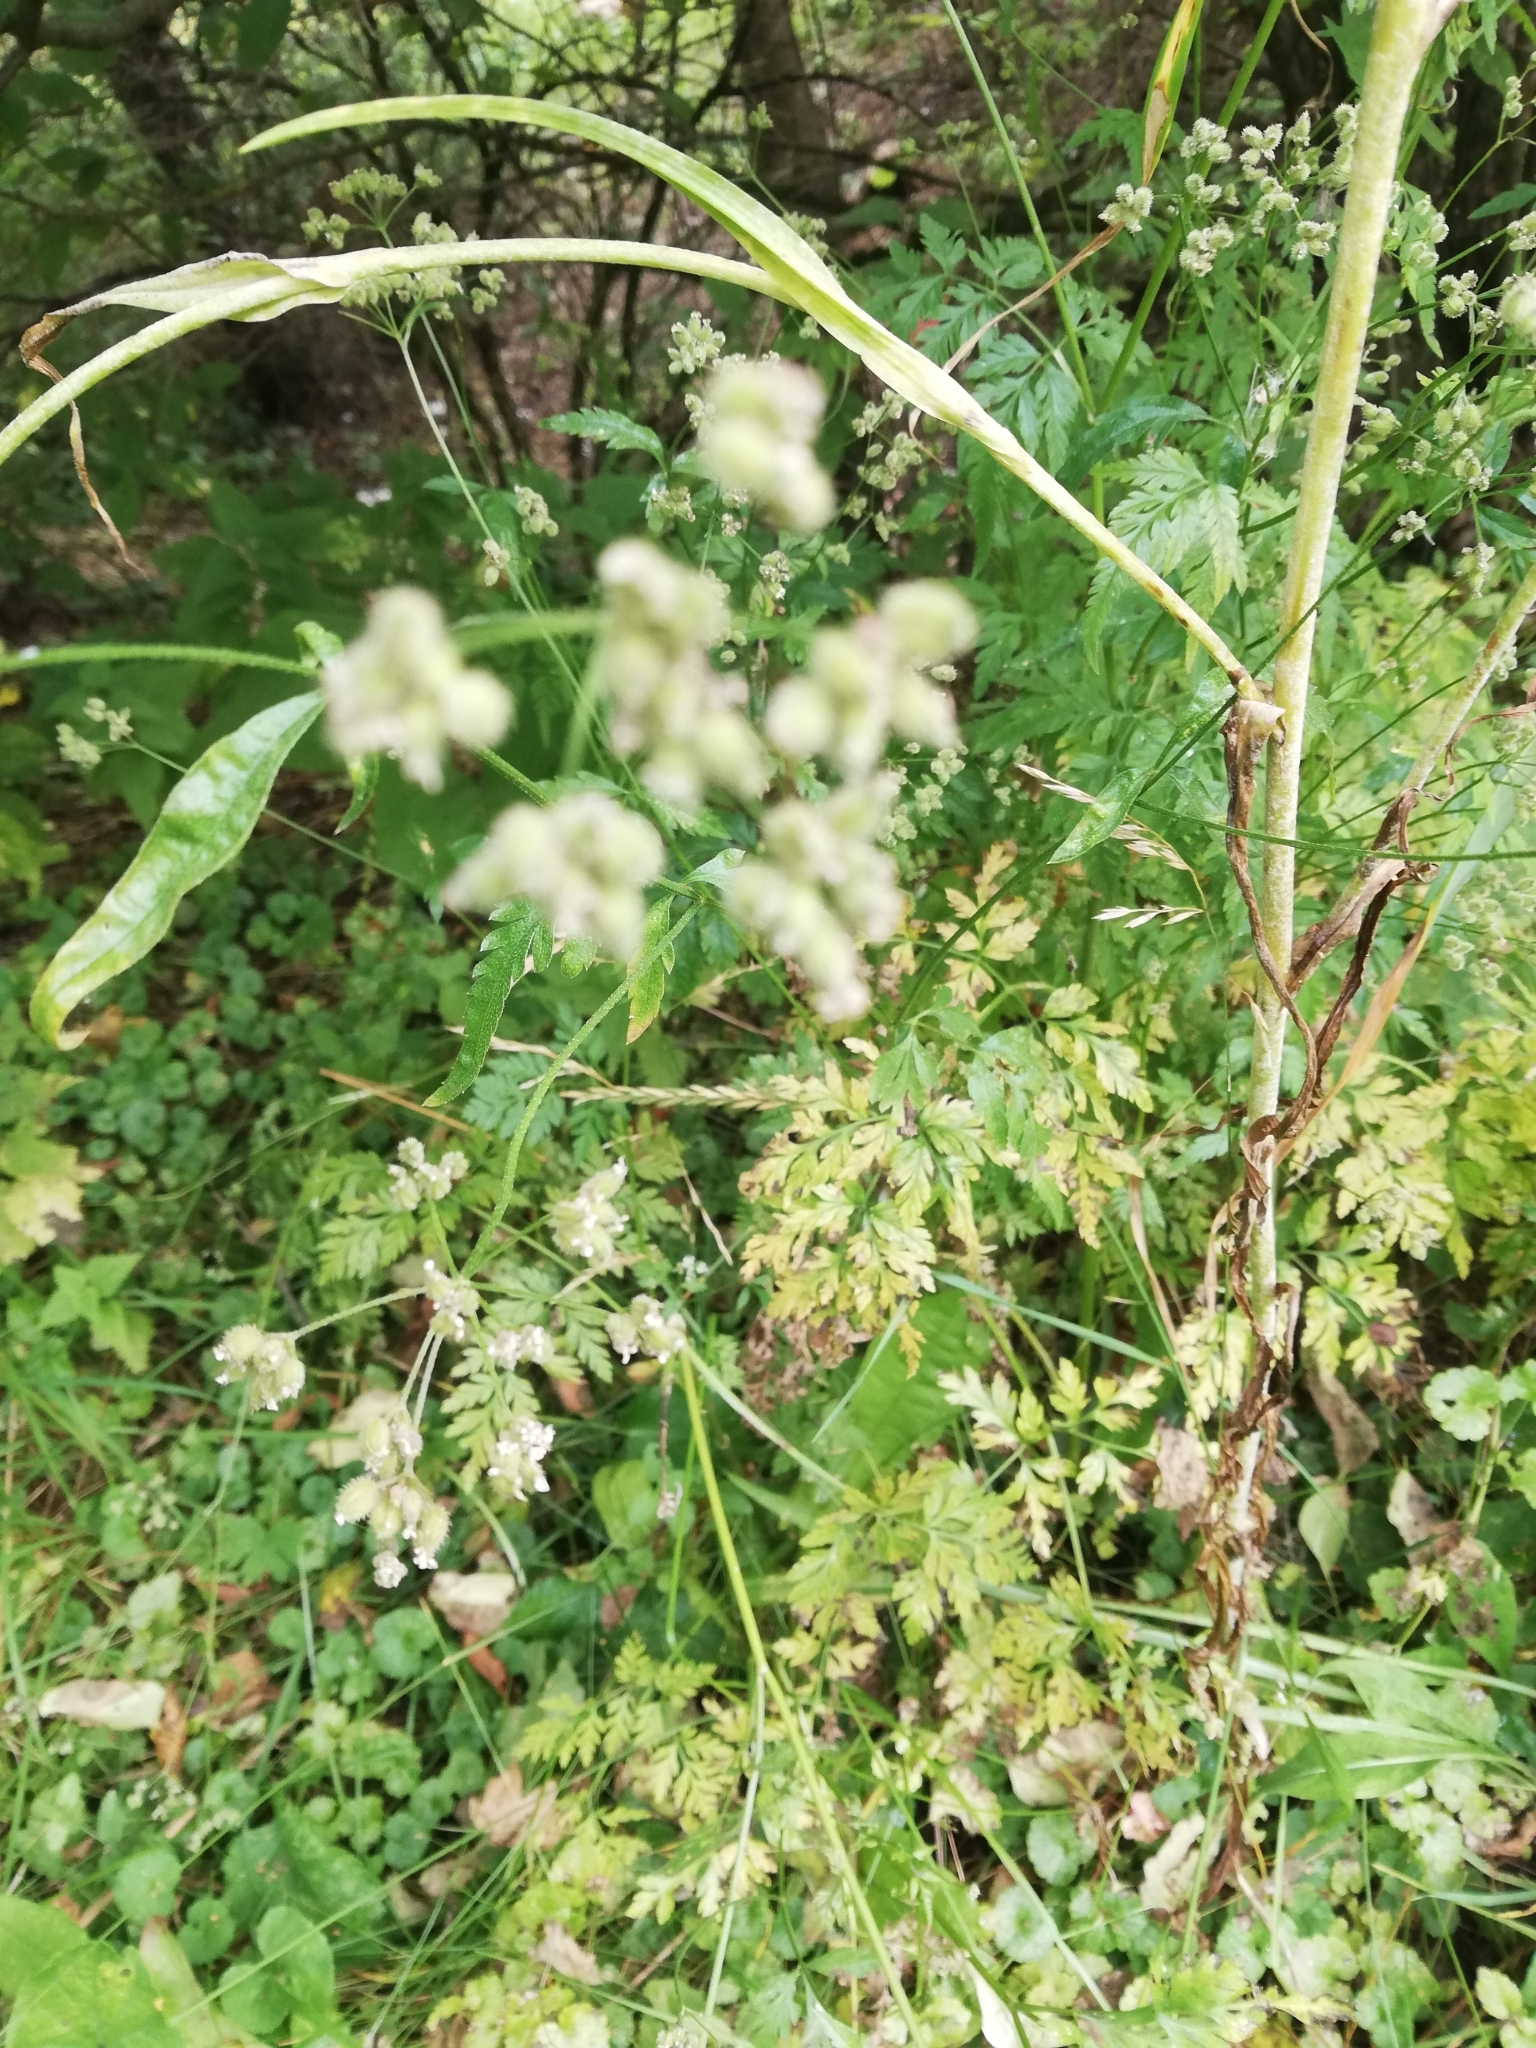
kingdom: Plantae
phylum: Tracheophyta
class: Magnoliopsida
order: Apiales
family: Apiaceae
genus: Torilis
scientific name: Torilis japonica
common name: Upright hedge-parsley
